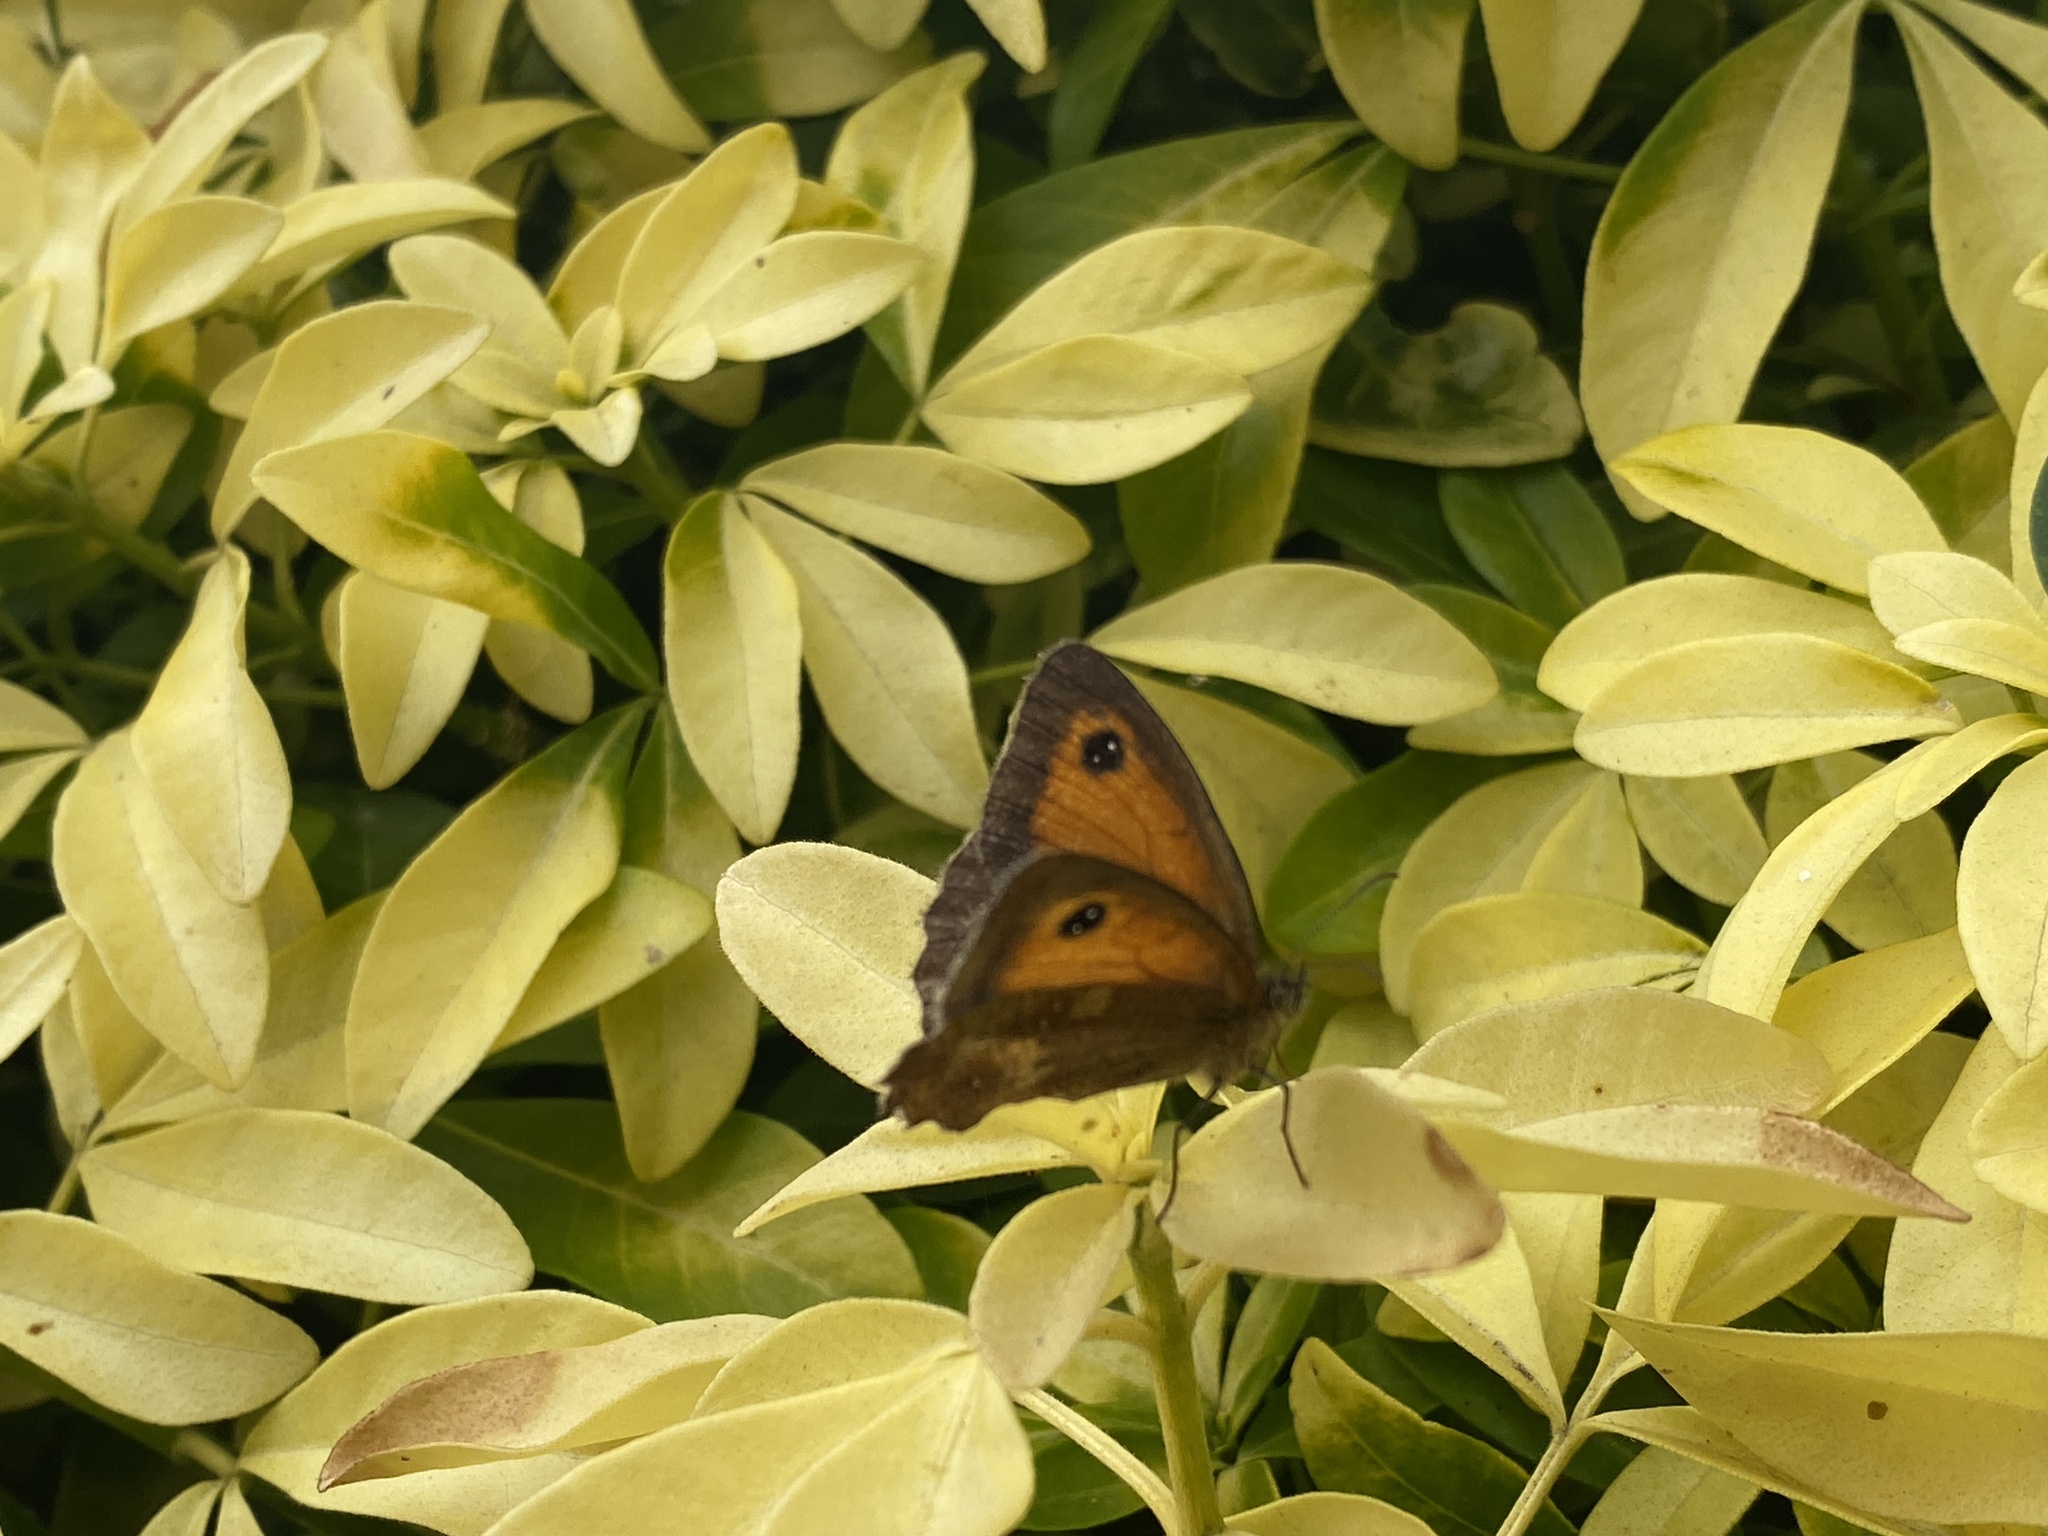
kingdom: Animalia
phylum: Arthropoda
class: Insecta
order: Lepidoptera
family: Nymphalidae
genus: Pyronia
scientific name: Pyronia tithonus
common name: Gatekeeper
